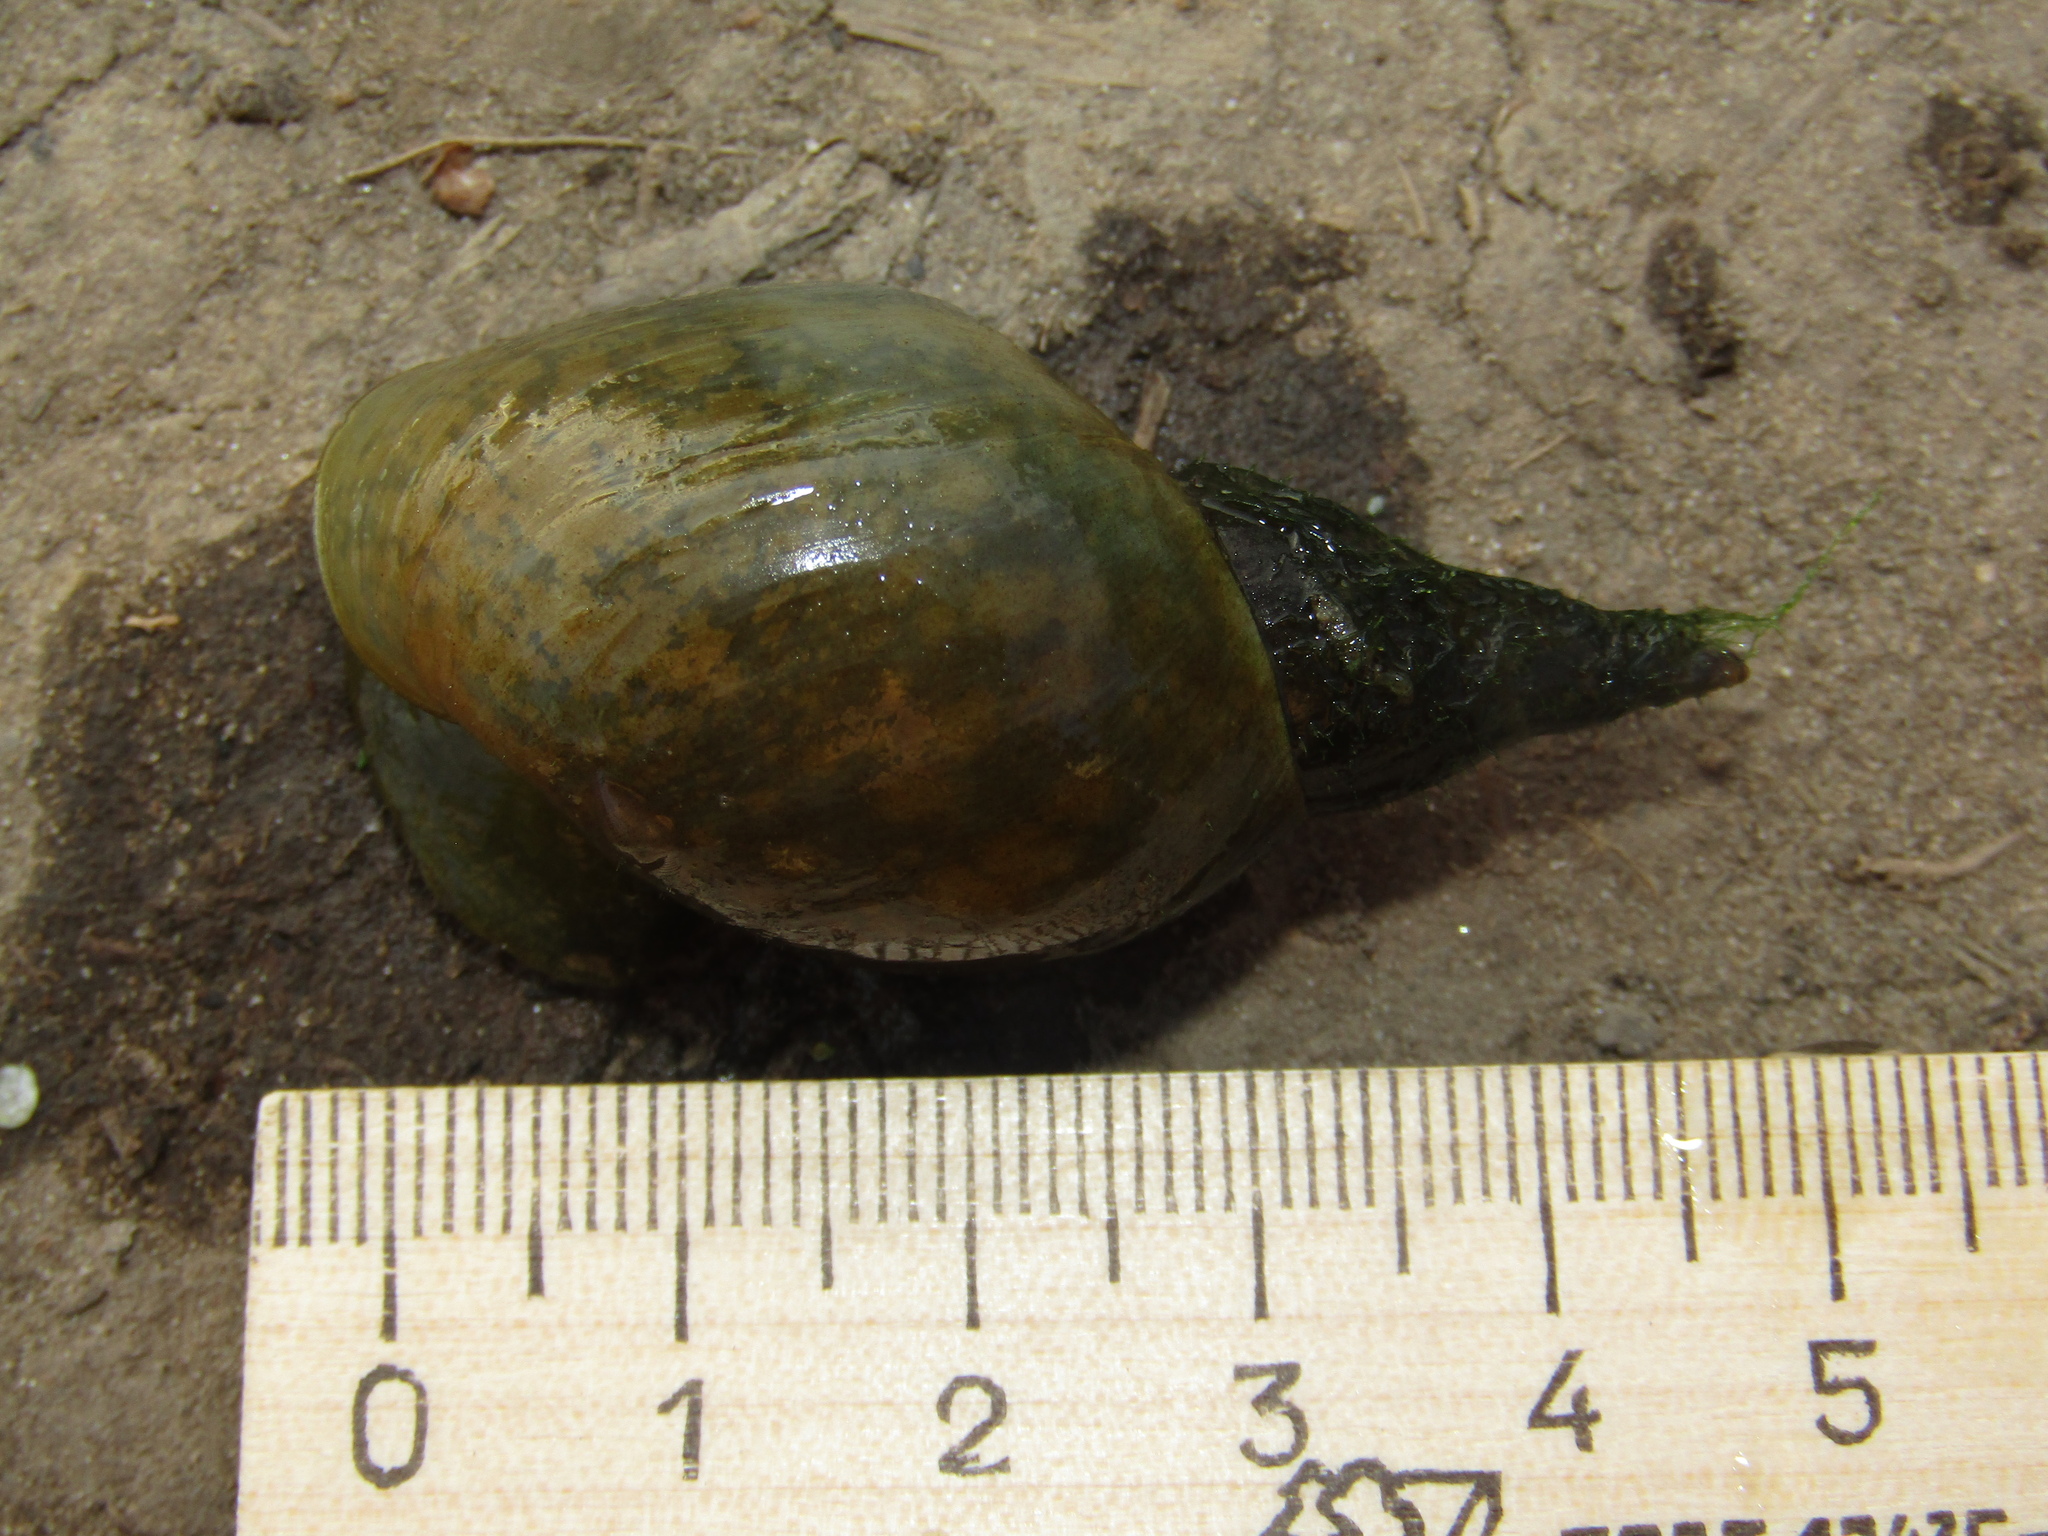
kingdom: Animalia
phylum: Mollusca
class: Gastropoda
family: Lymnaeidae
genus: Lymnaea
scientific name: Lymnaea stagnalis
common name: Great pond snail
